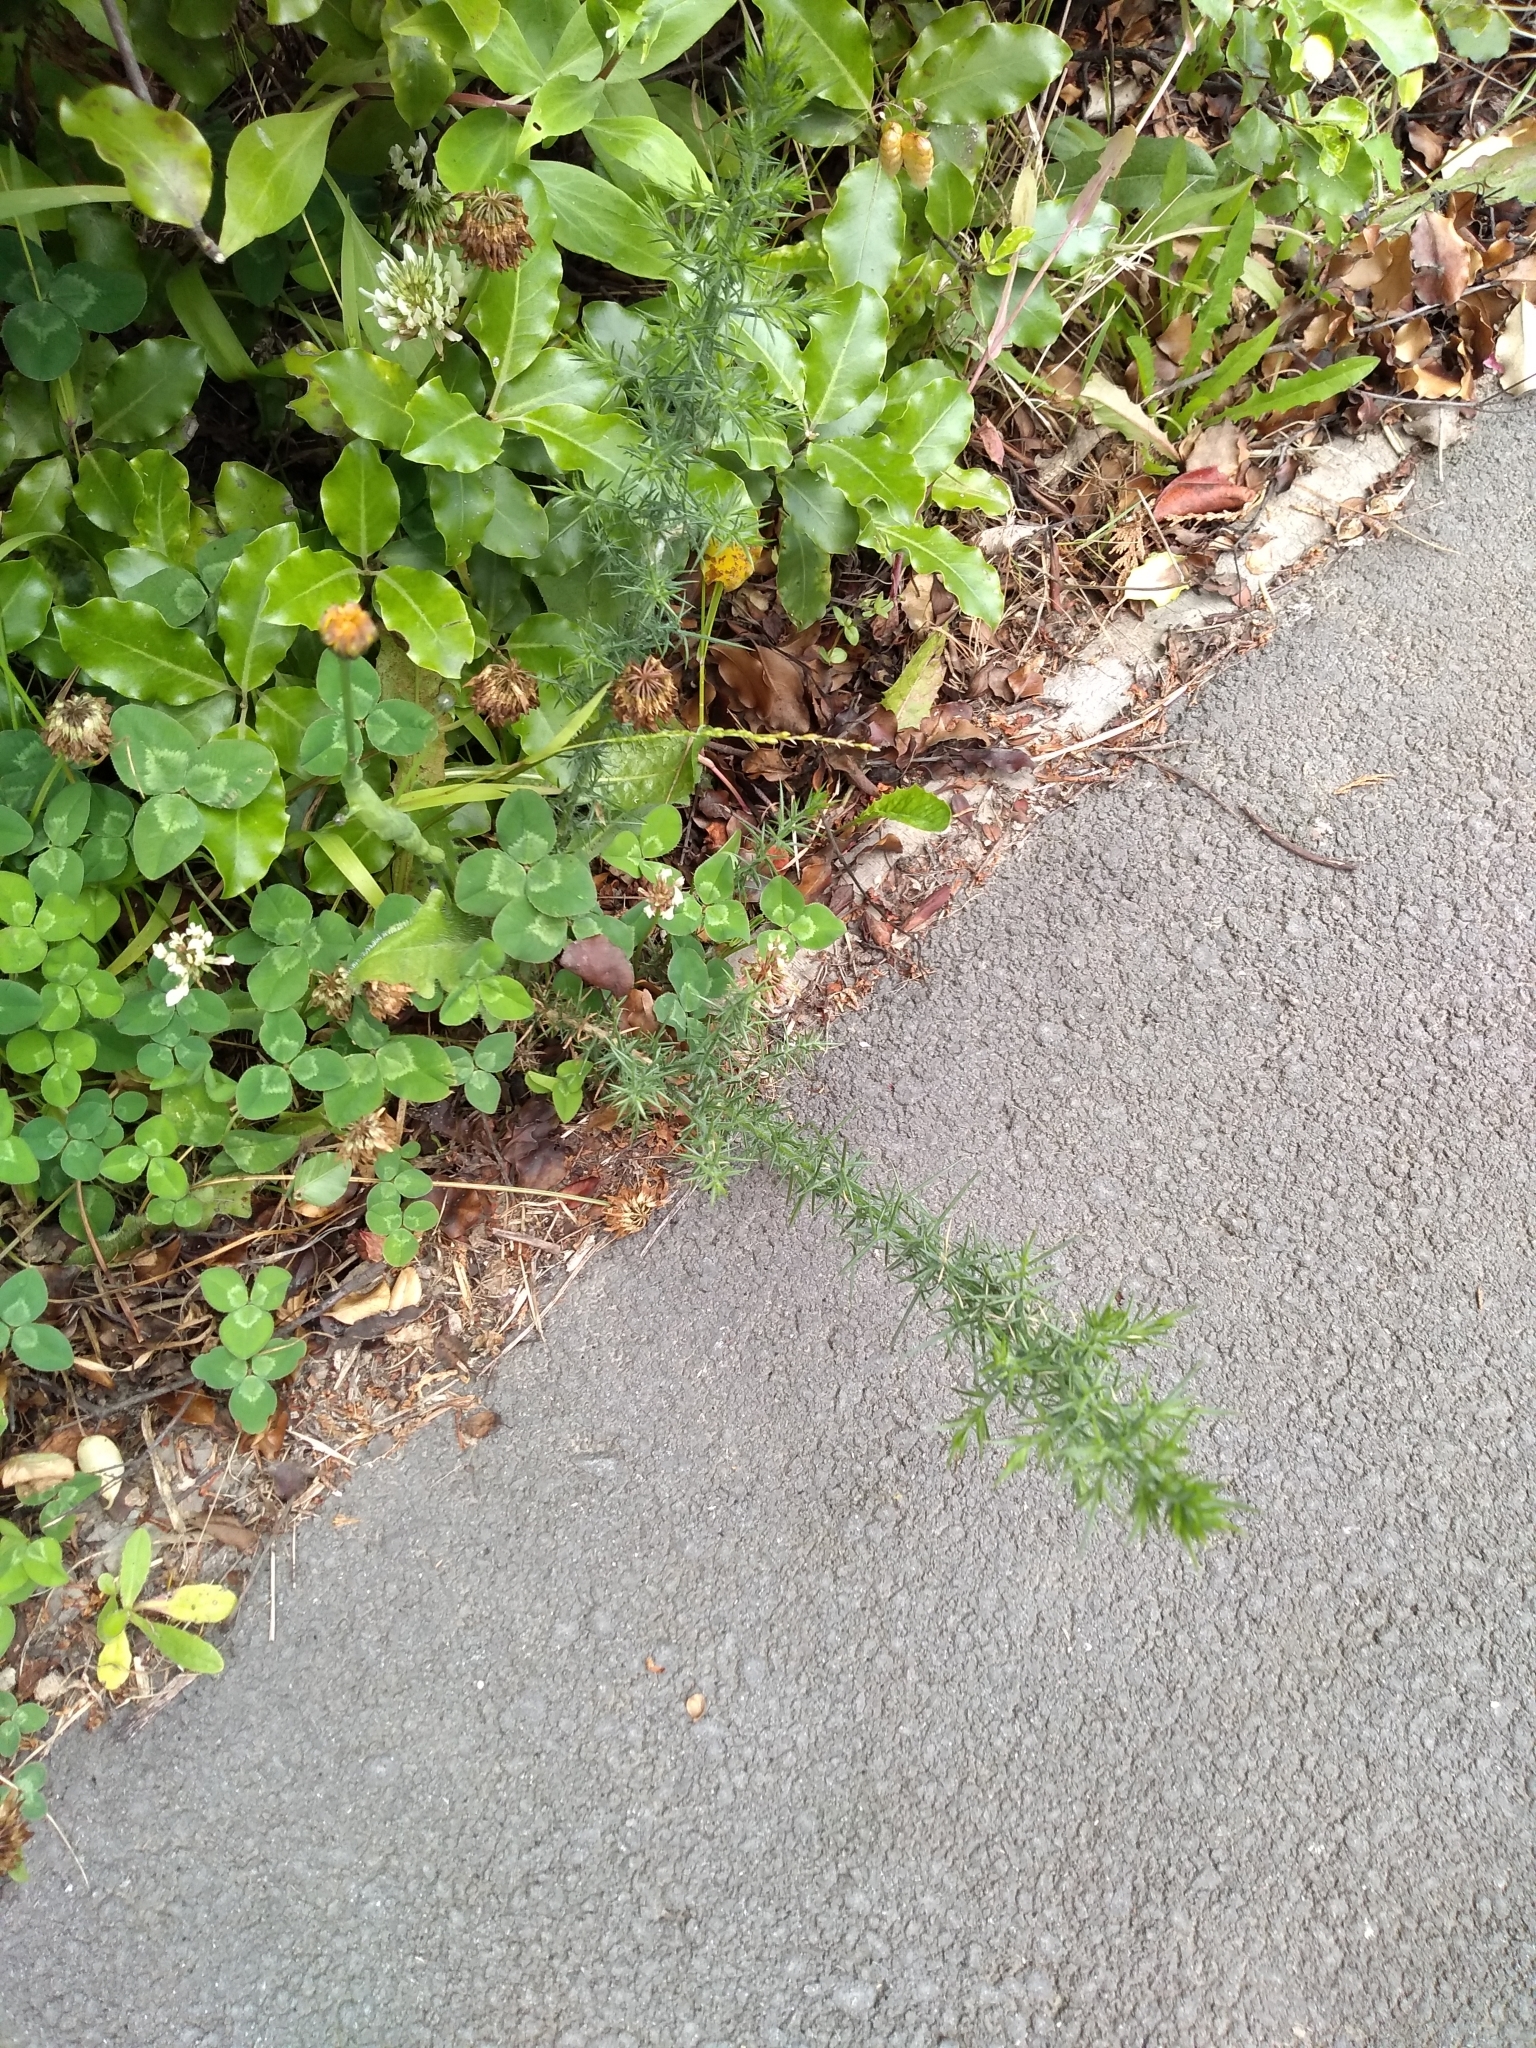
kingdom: Plantae
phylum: Tracheophyta
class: Magnoliopsida
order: Fabales
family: Fabaceae
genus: Ulex
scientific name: Ulex europaeus
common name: Common gorse
